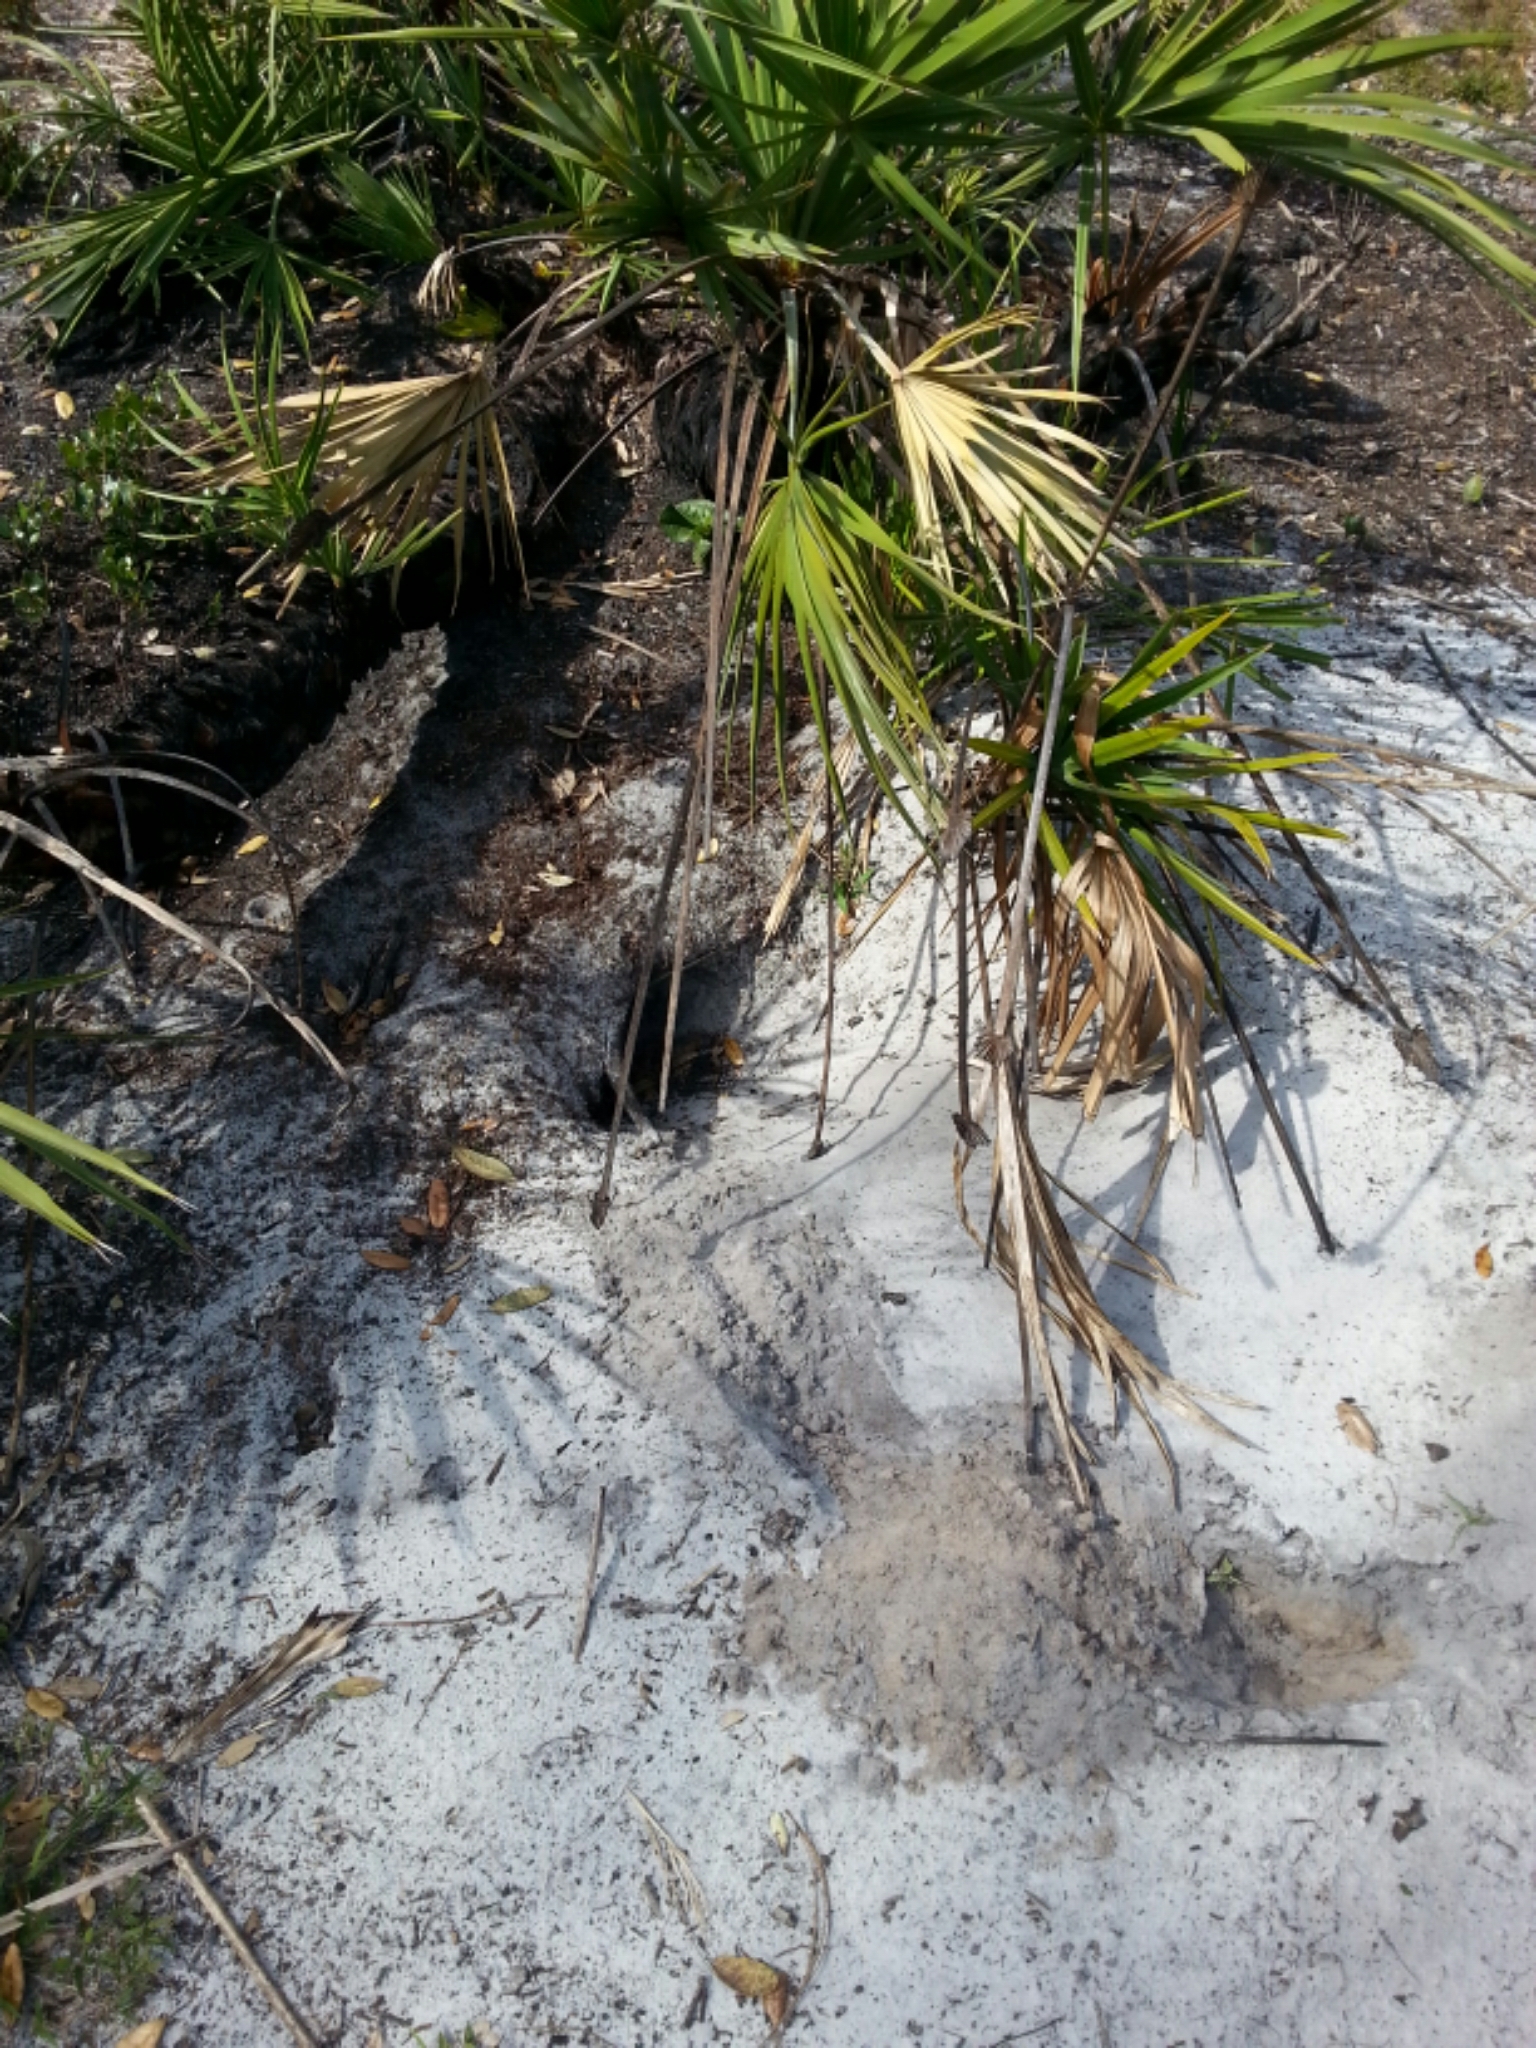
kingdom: Animalia
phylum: Chordata
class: Testudines
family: Testudinidae
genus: Gopherus
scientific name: Gopherus polyphemus
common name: Florida gopher tortoise
